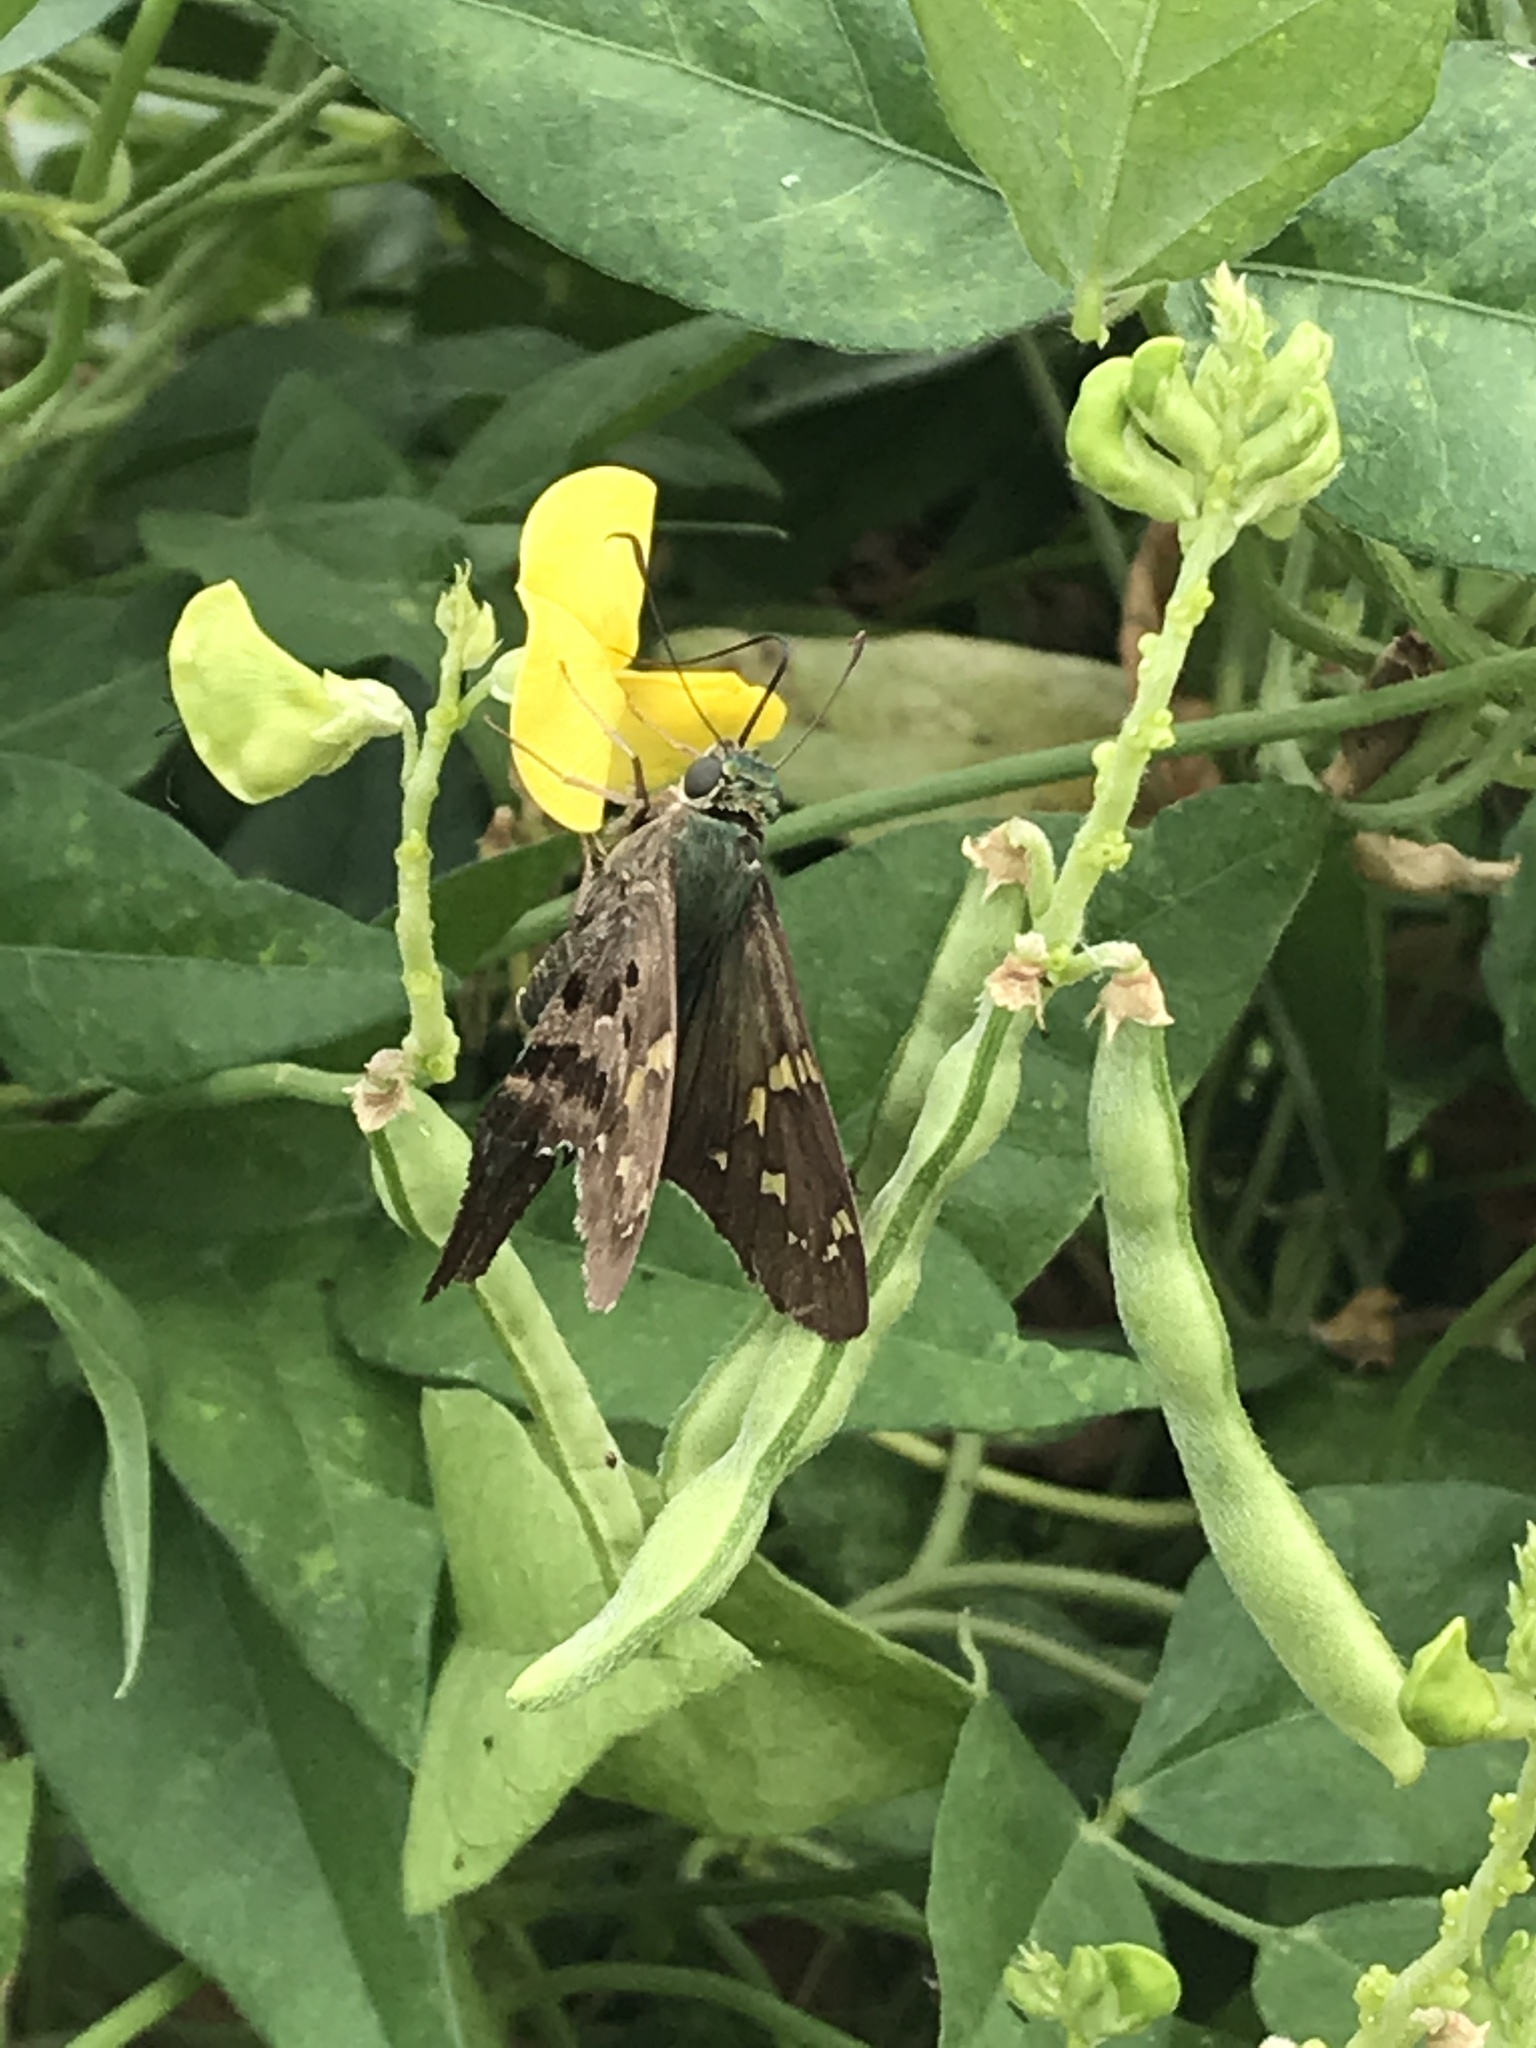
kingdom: Animalia
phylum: Arthropoda
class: Insecta
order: Lepidoptera
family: Hesperiidae
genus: Urbanus
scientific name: Urbanus proteus
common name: Long-tailed skipper
